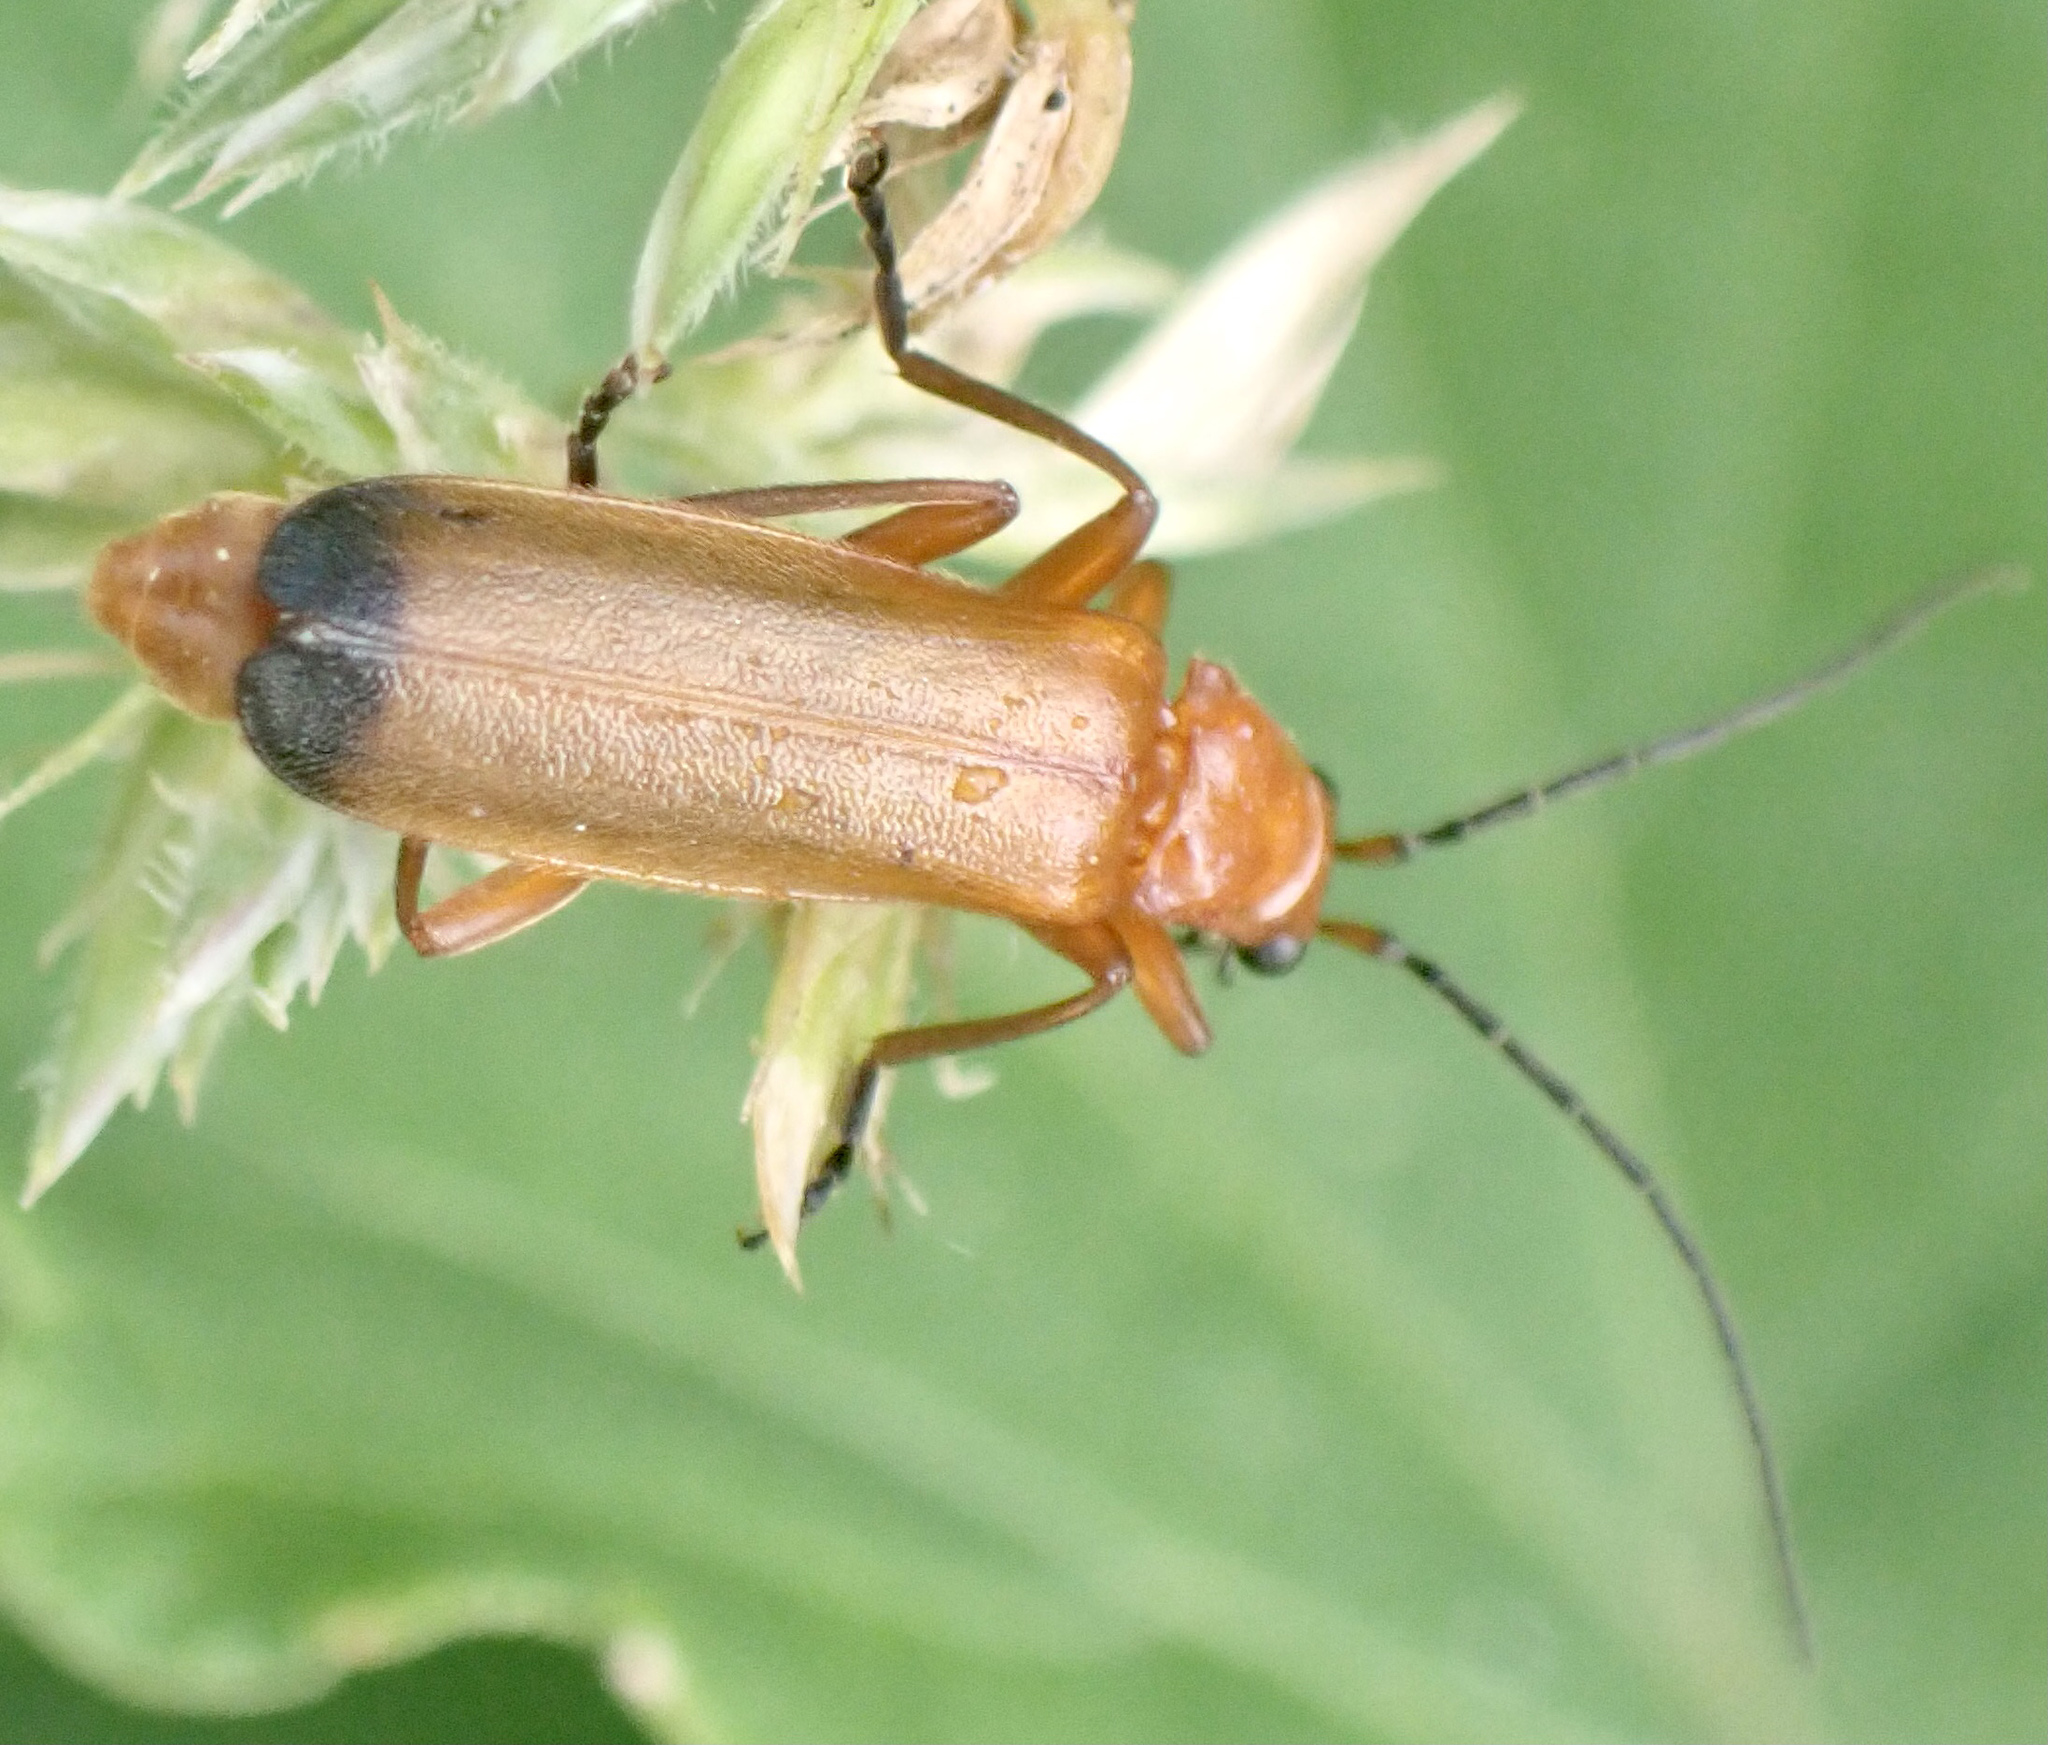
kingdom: Animalia
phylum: Arthropoda
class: Insecta
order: Coleoptera
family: Cantharidae
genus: Rhagonycha
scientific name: Rhagonycha fulva
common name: Common red soldier beetle
